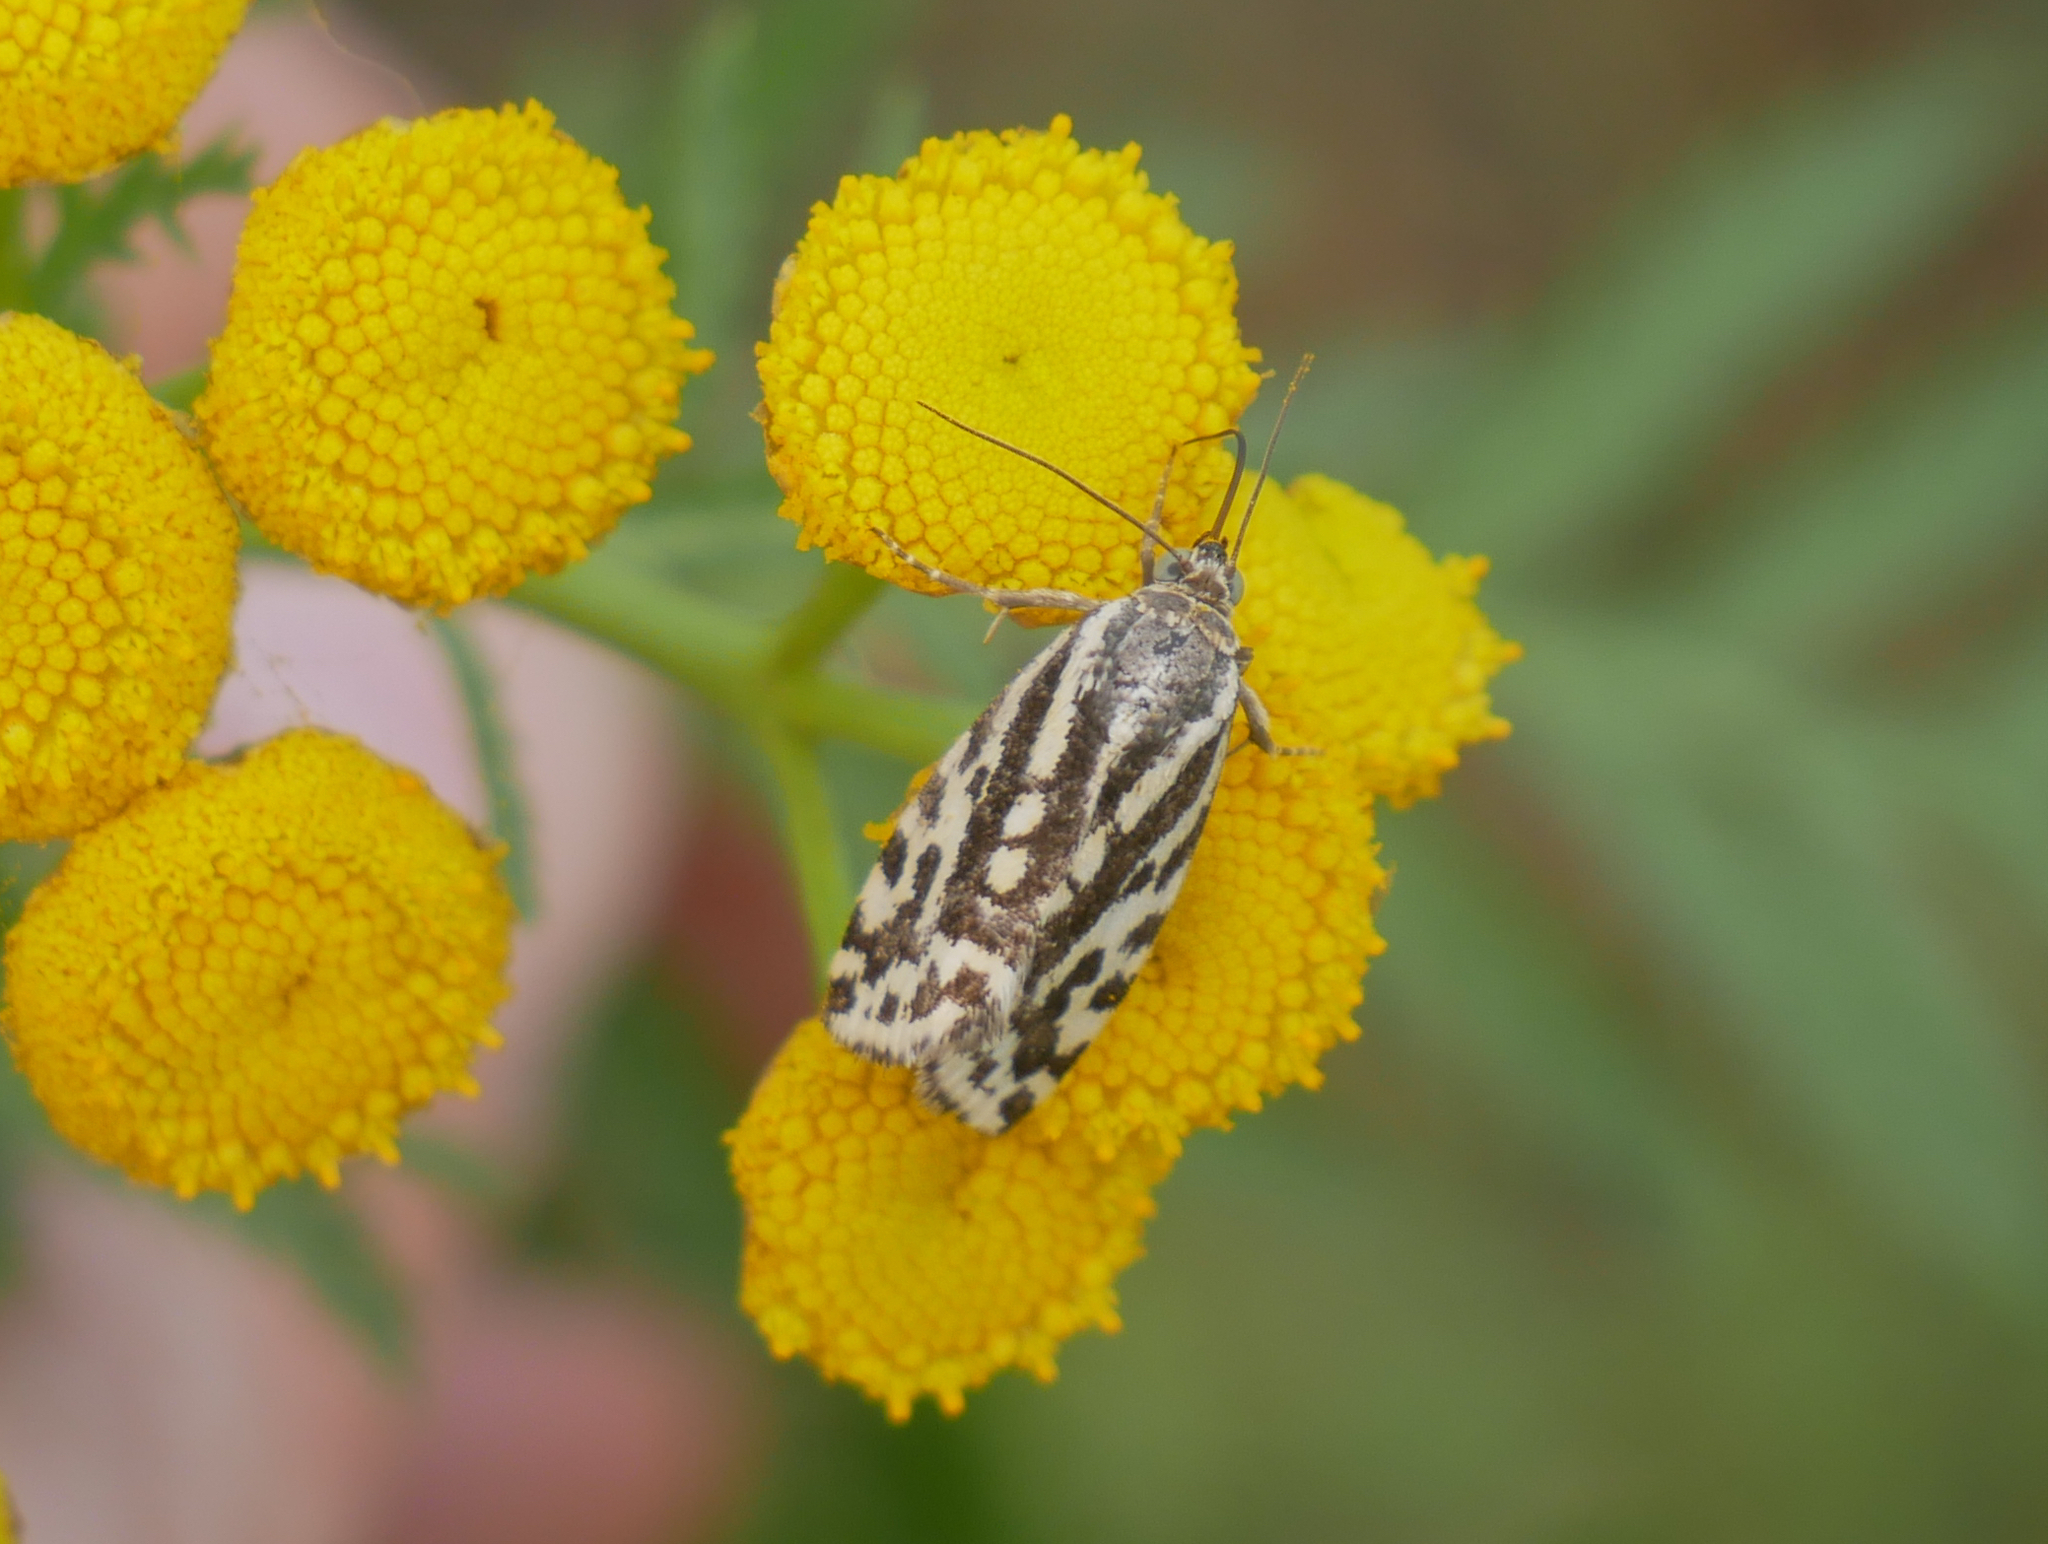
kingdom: Animalia
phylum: Arthropoda
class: Insecta
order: Lepidoptera
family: Noctuidae
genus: Acontia
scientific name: Acontia trabealis
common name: Spotted sulphur
